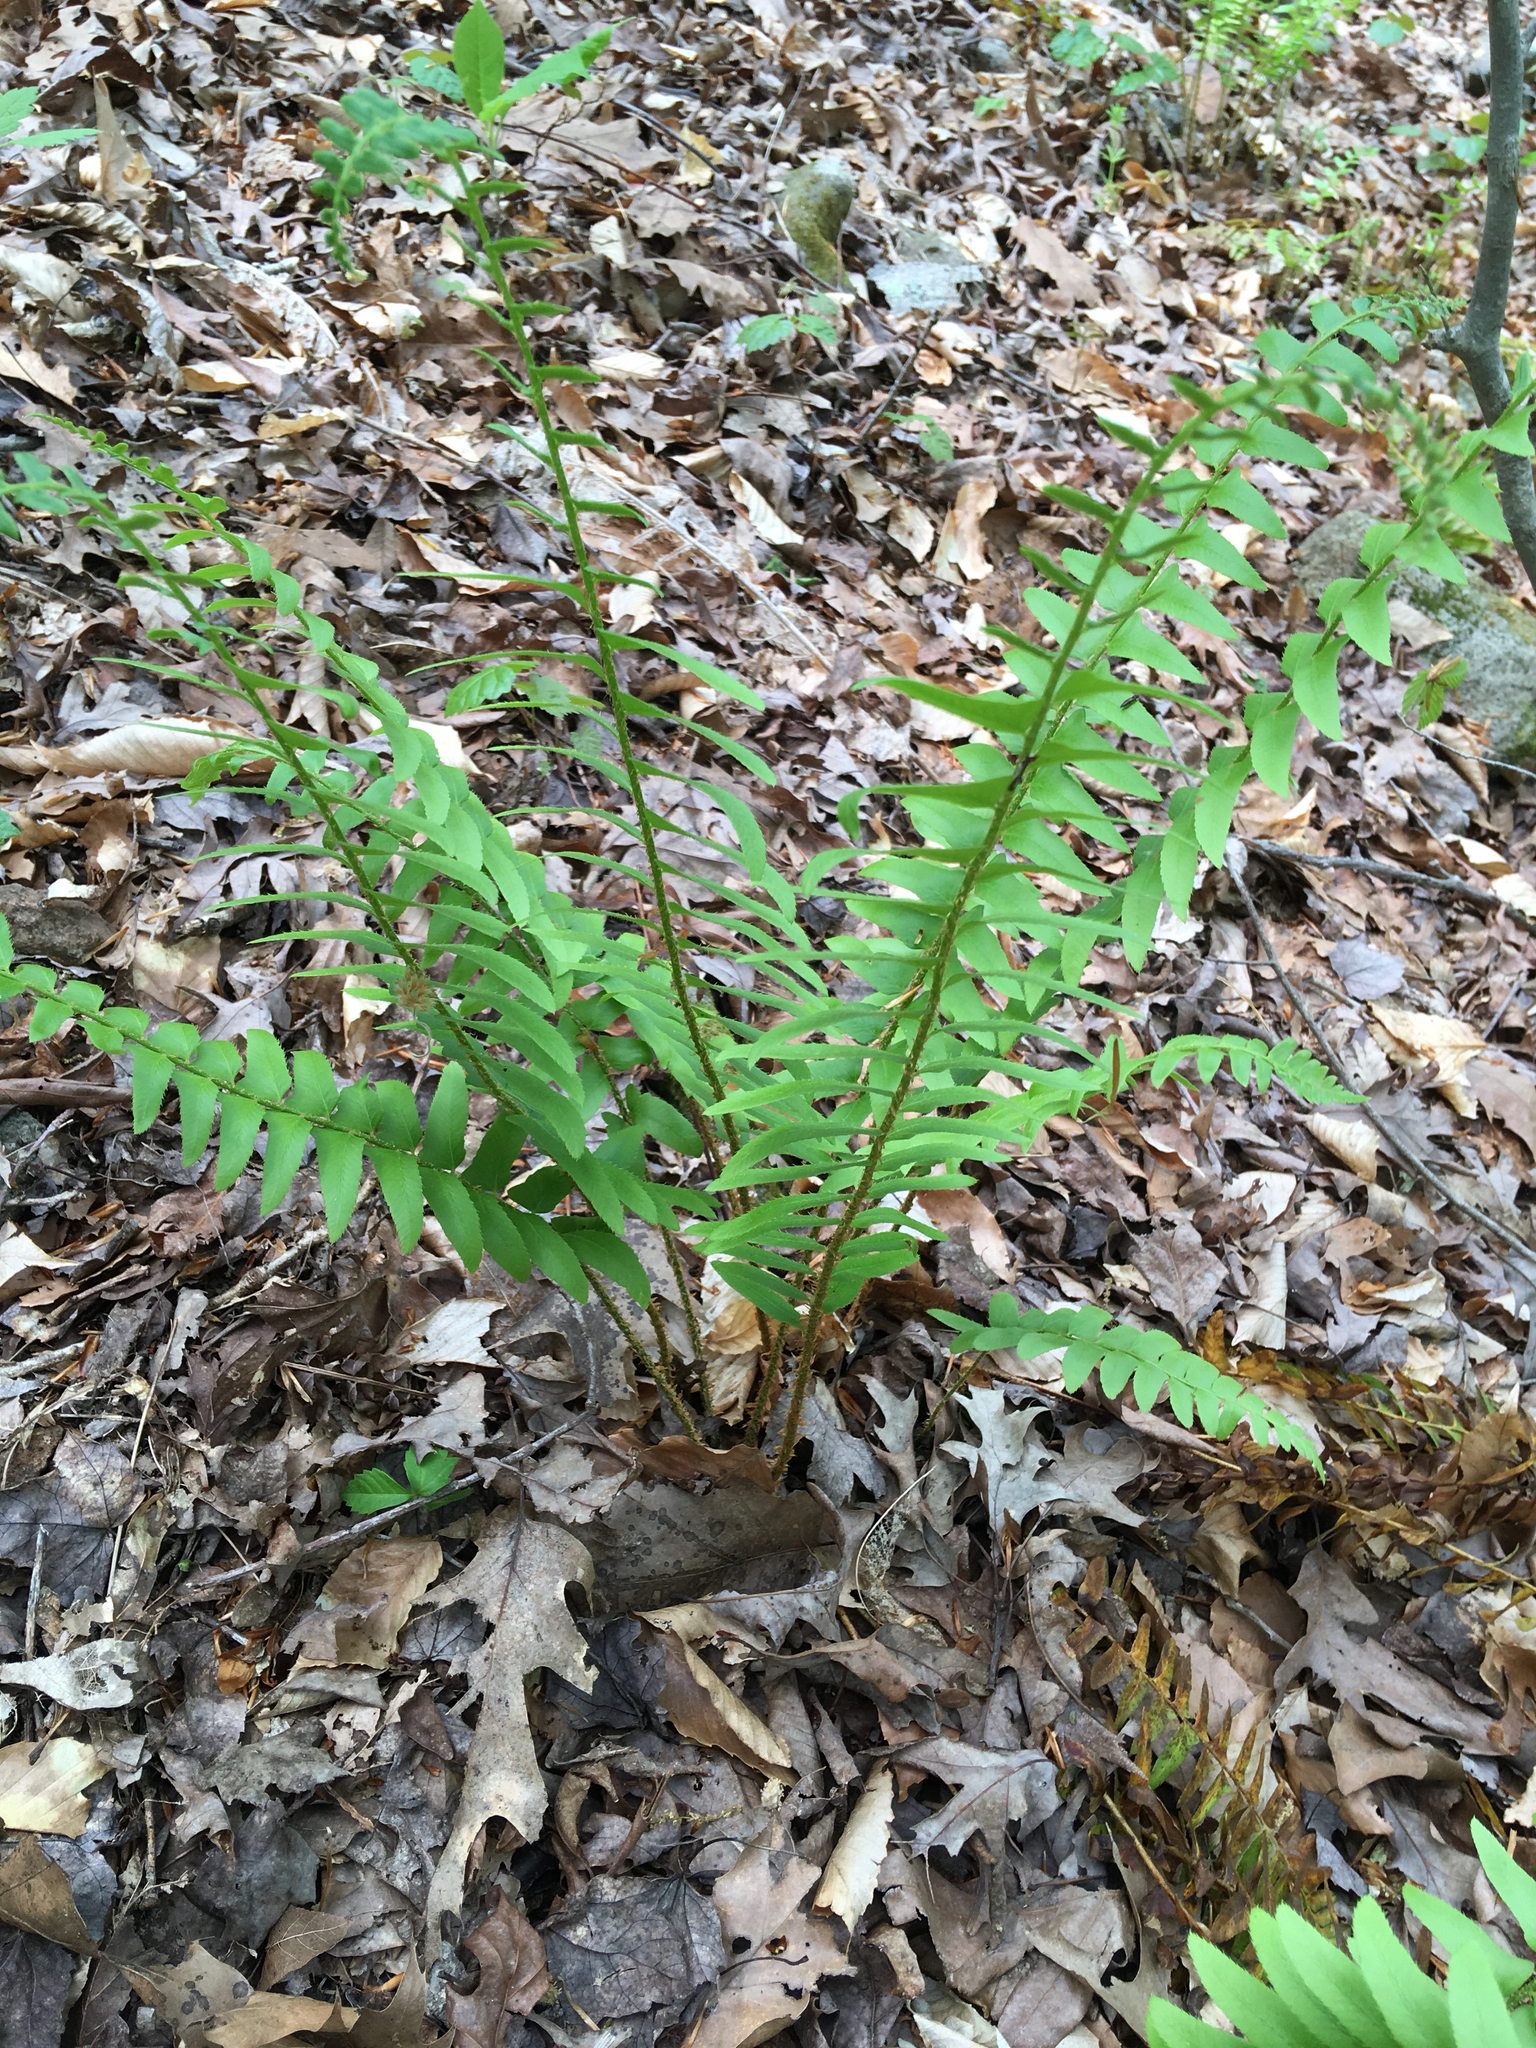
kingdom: Plantae
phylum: Tracheophyta
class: Polypodiopsida
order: Polypodiales
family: Dryopteridaceae
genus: Polystichum
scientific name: Polystichum acrostichoides
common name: Christmas fern
